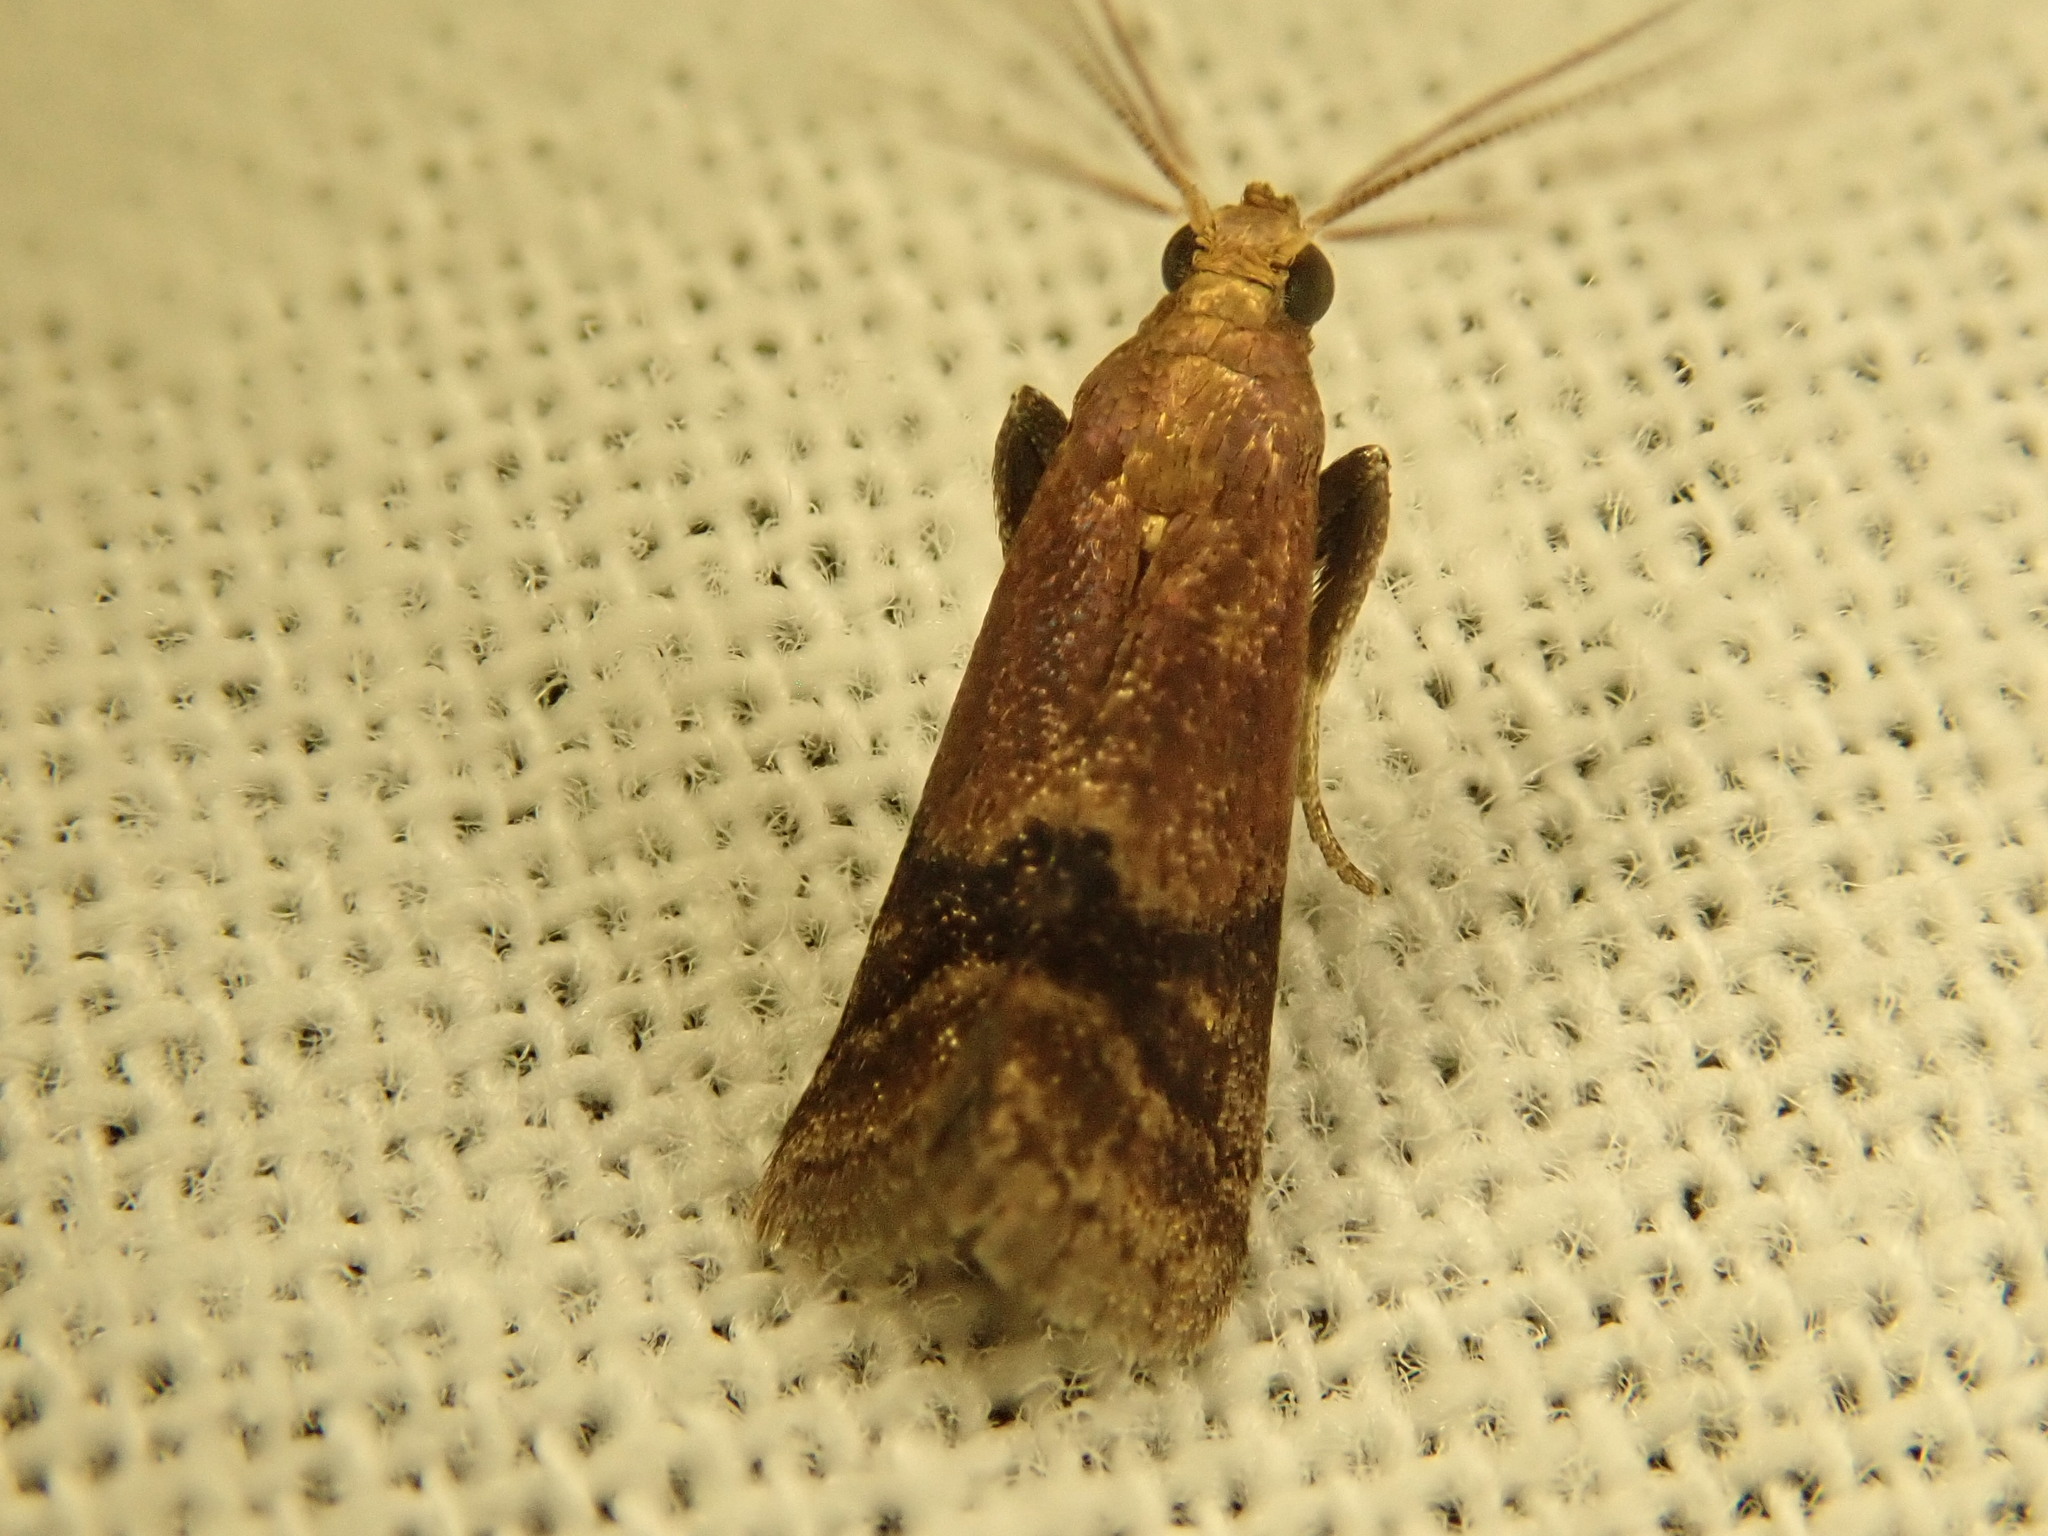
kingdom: Animalia
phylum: Arthropoda
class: Insecta
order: Lepidoptera
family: Pyralidae
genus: Eulogia
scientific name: Eulogia ochrifrontella
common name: Broad-banded eulogia moth
